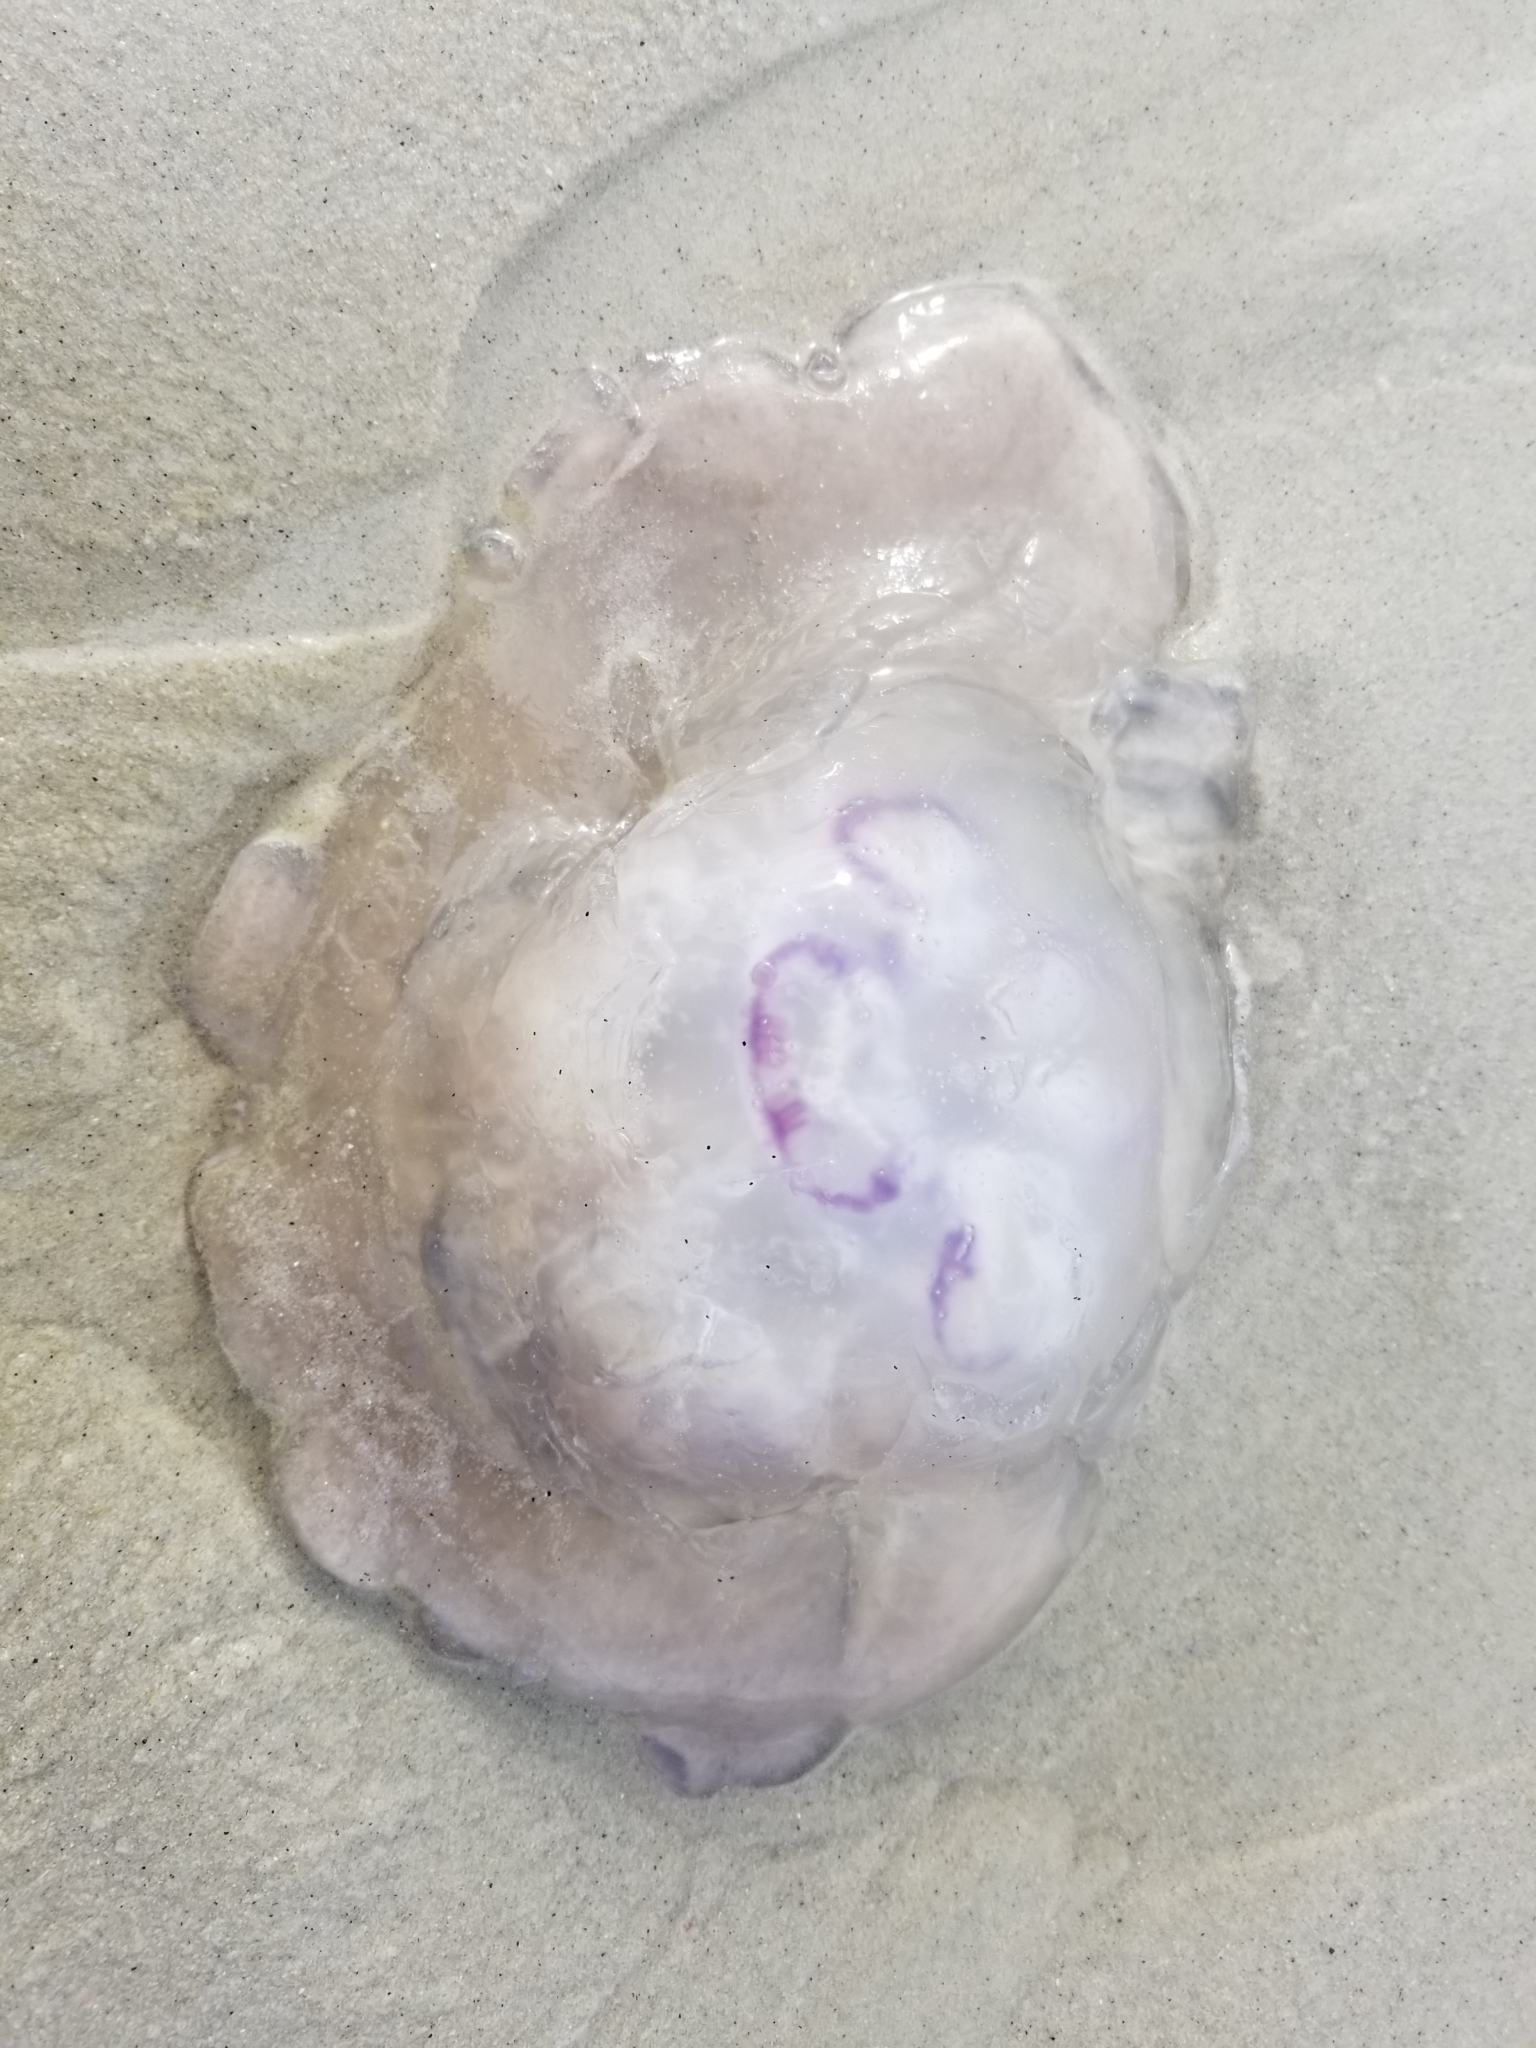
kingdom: Animalia
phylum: Cnidaria
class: Scyphozoa
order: Semaeostomeae
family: Ulmaridae
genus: Aurelia
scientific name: Aurelia labiata
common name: Pacific moon jelly
